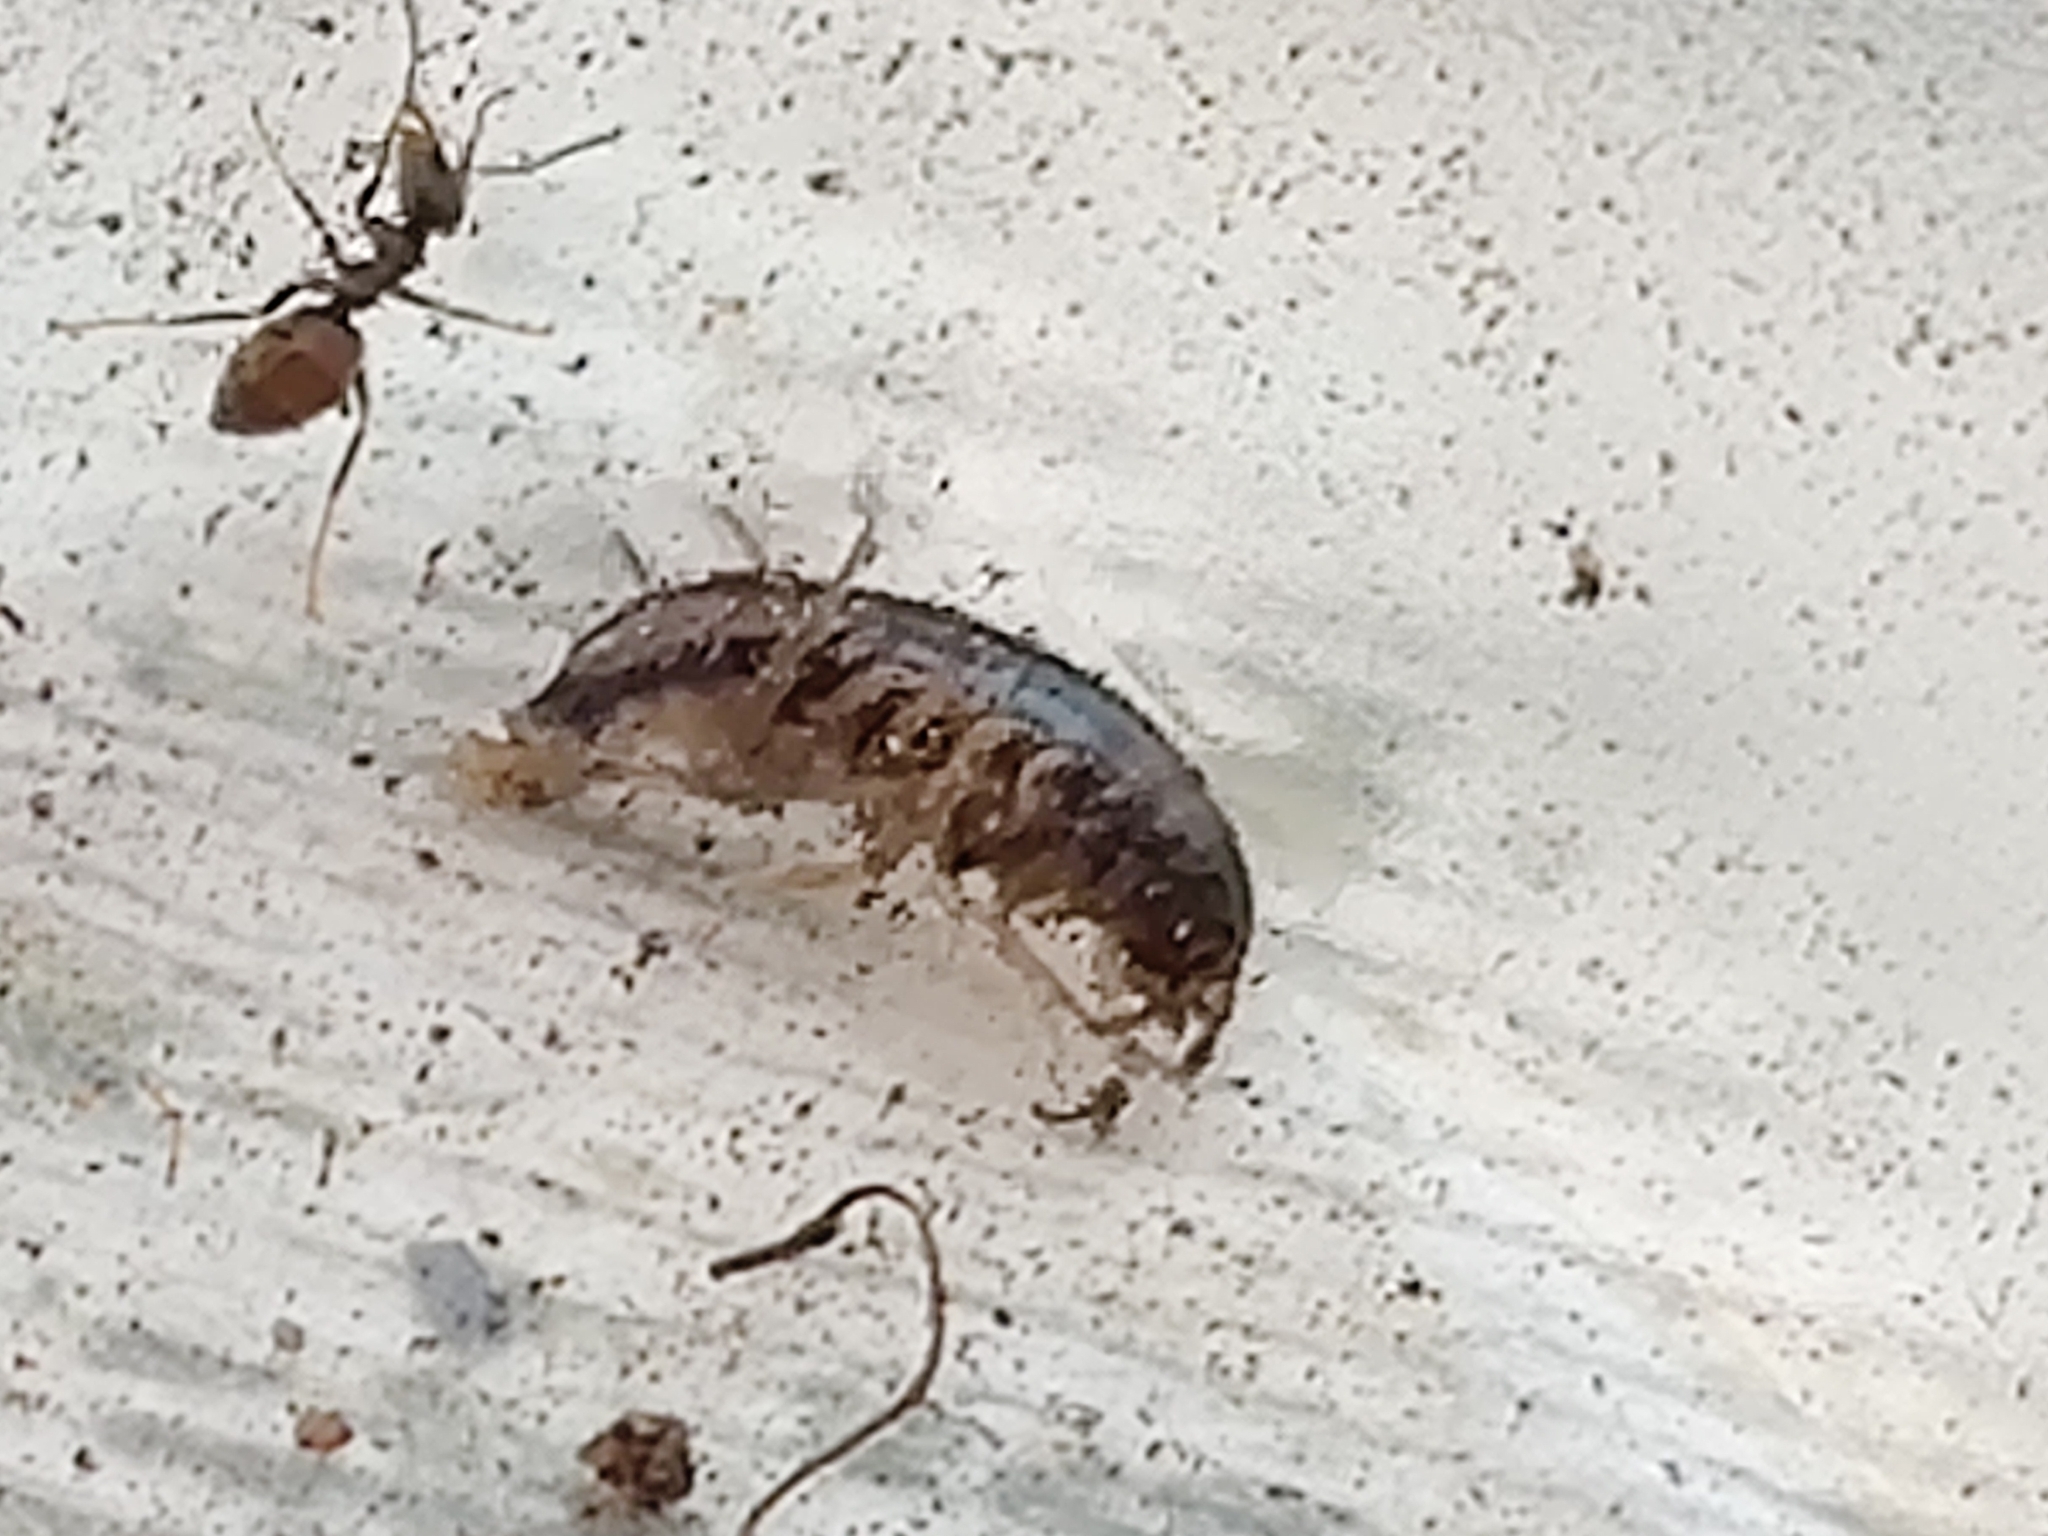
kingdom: Animalia
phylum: Arthropoda
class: Malacostraca
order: Amphipoda
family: Arcitalitridae
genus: Arcitalitrus
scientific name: Arcitalitrus dorrieni
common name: Landhopper
